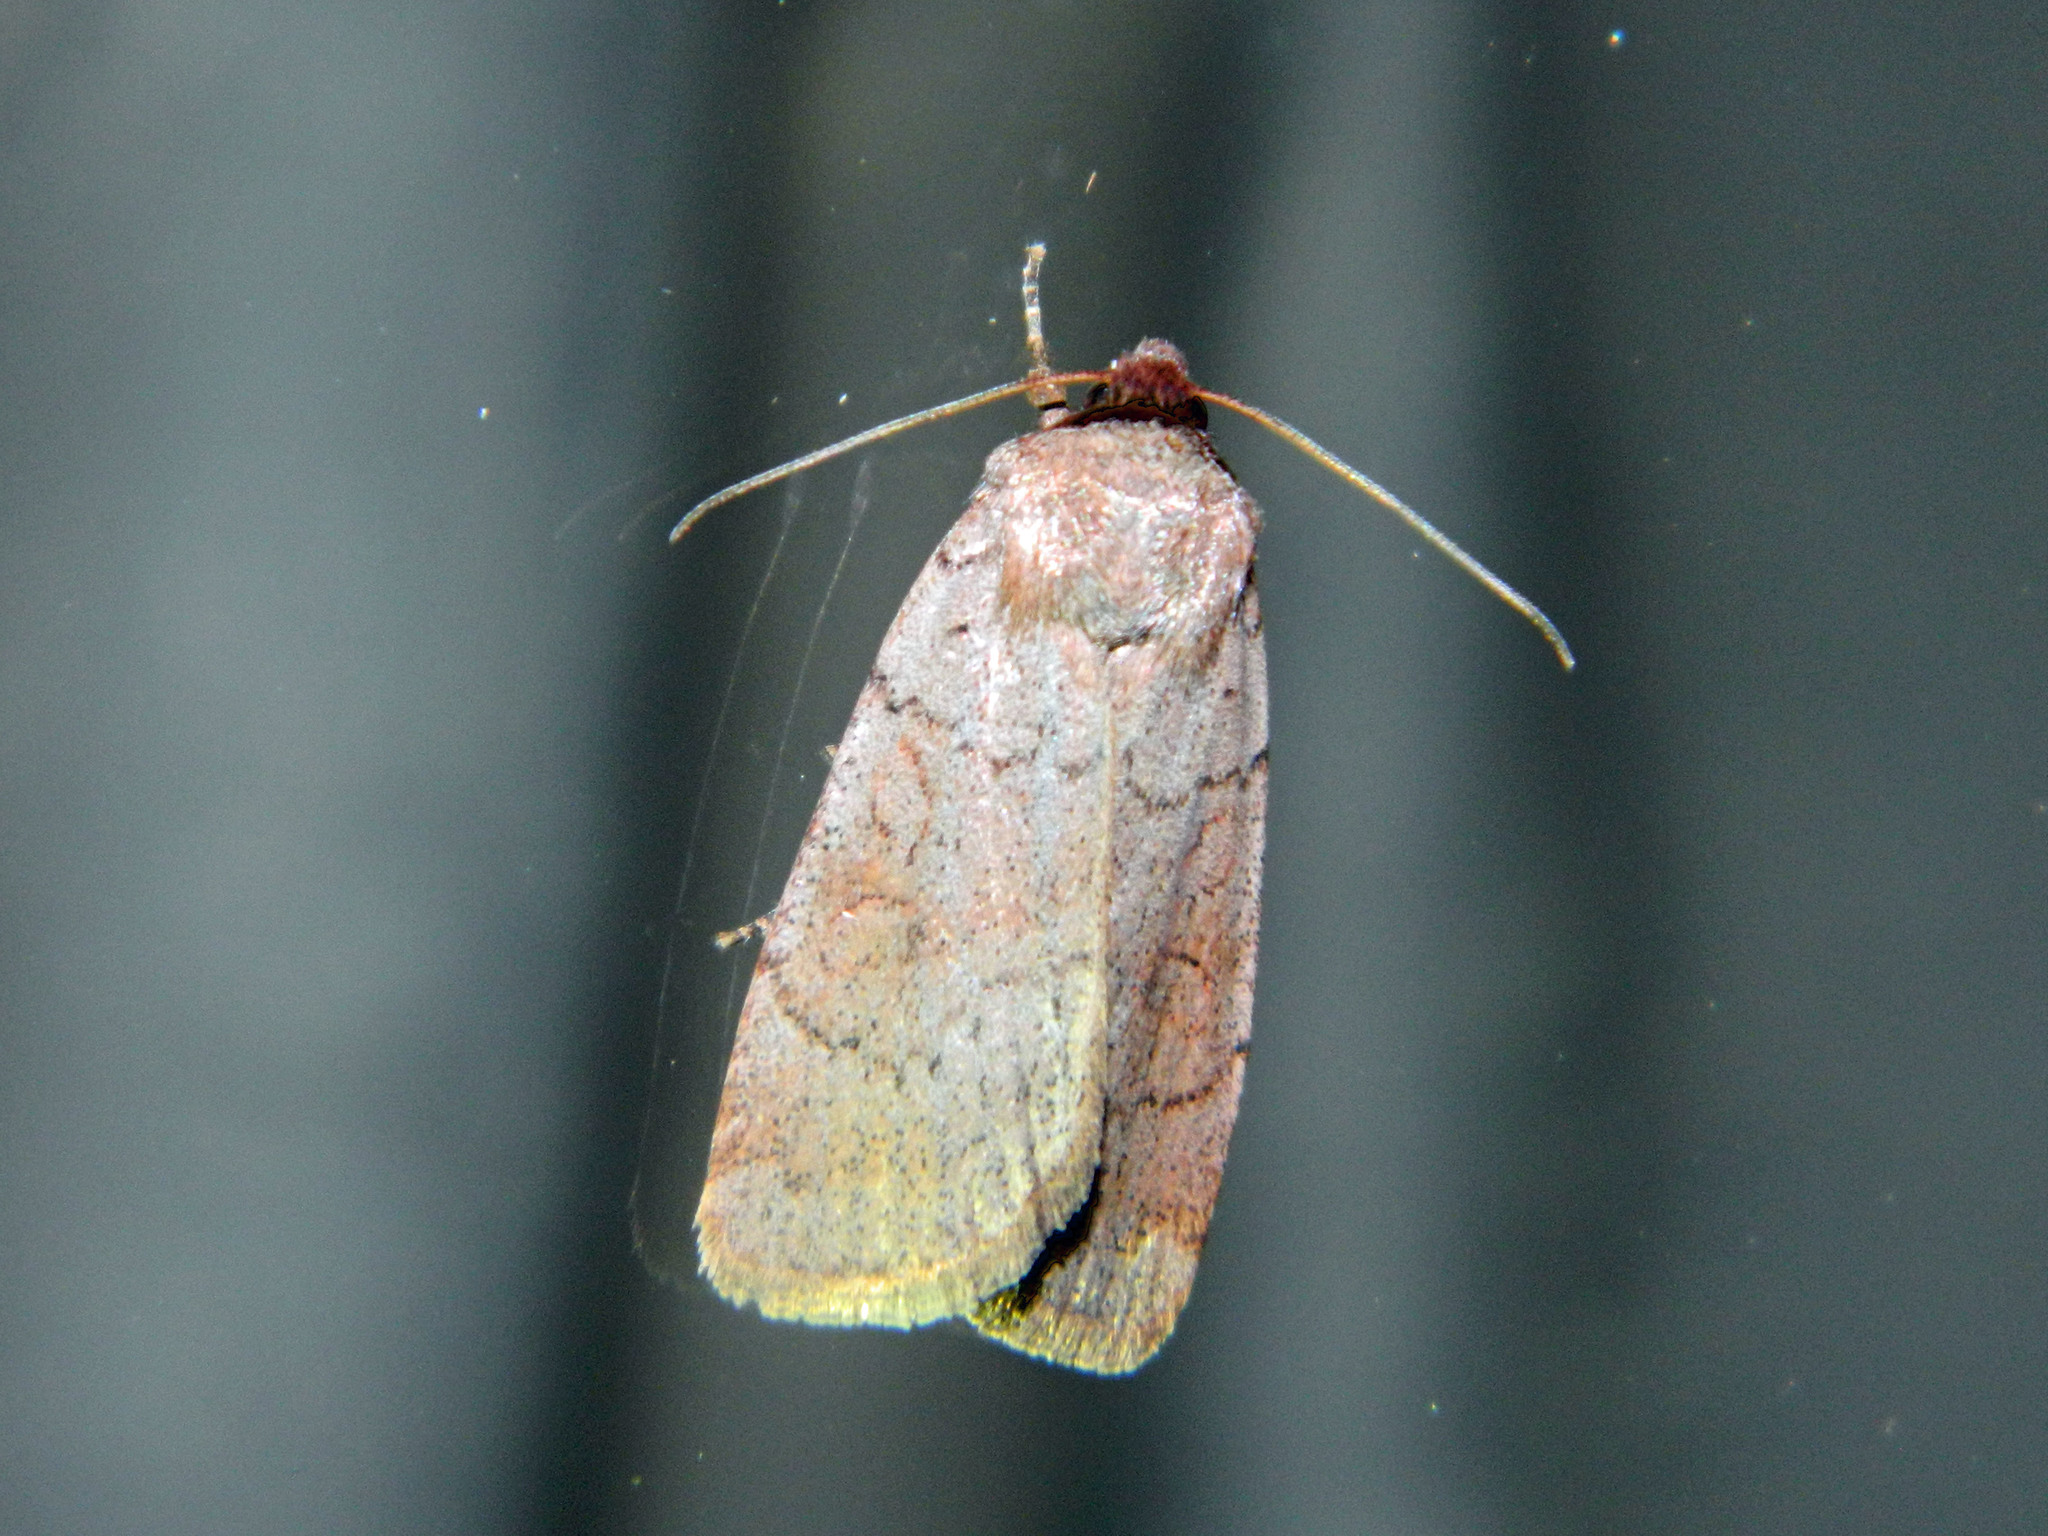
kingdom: Animalia
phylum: Arthropoda
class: Insecta
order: Lepidoptera
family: Noctuidae
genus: Protolampra
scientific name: Protolampra rufipectus
